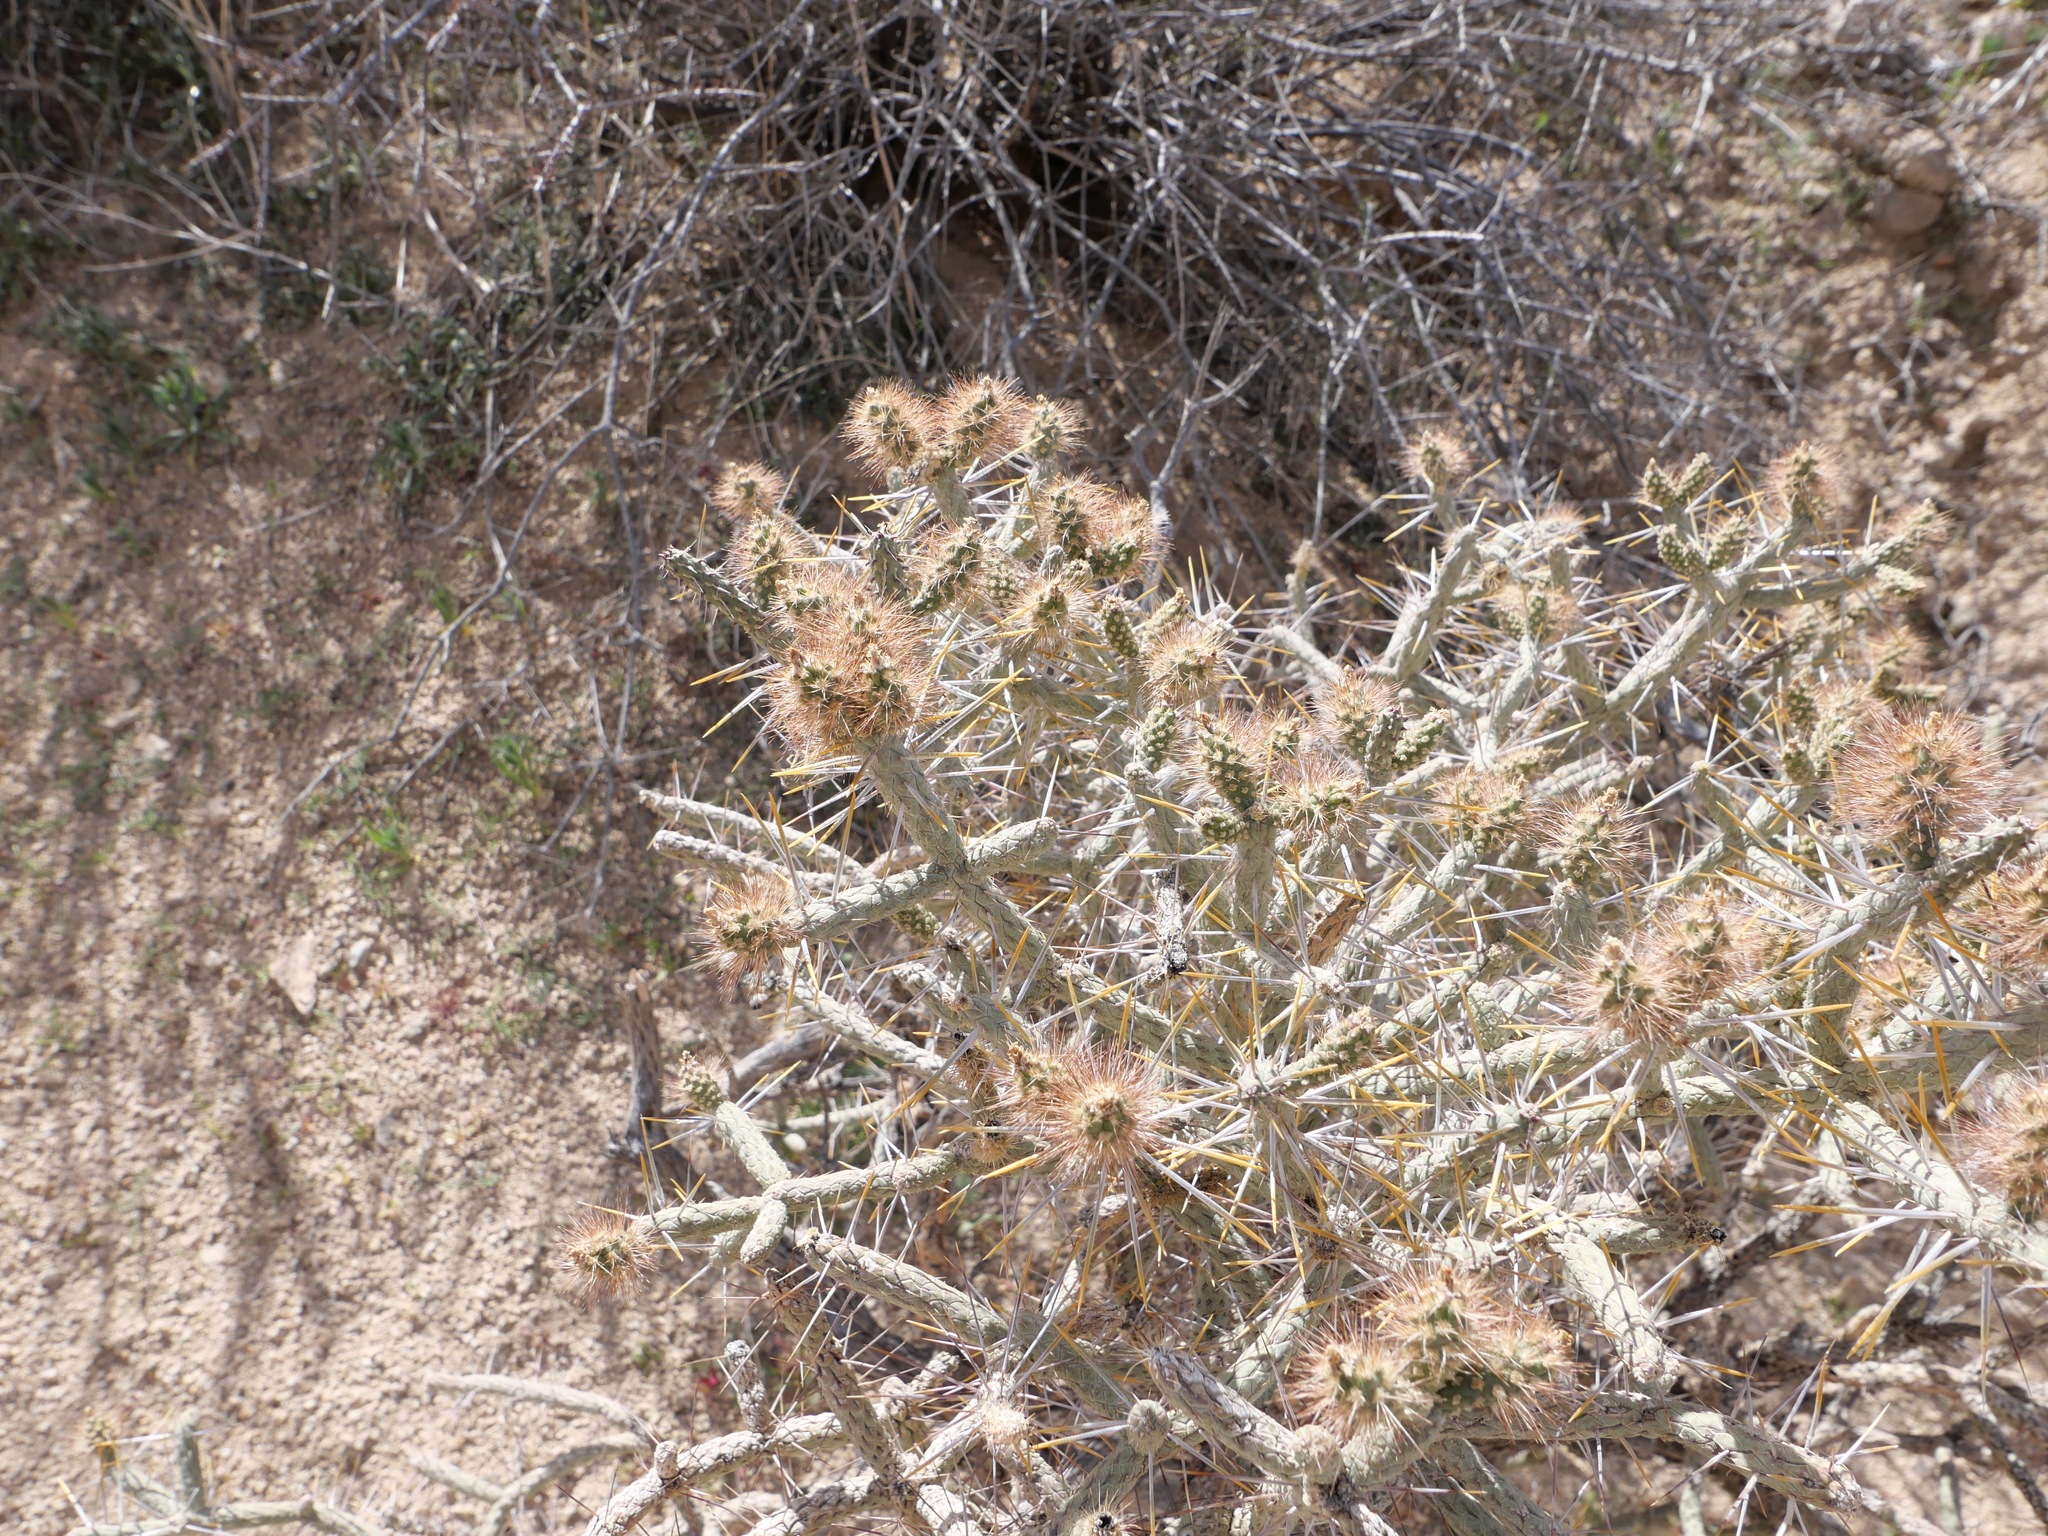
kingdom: Plantae
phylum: Tracheophyta
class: Magnoliopsida
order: Caryophyllales
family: Cactaceae
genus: Cylindropuntia
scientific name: Cylindropuntia ramosissima
